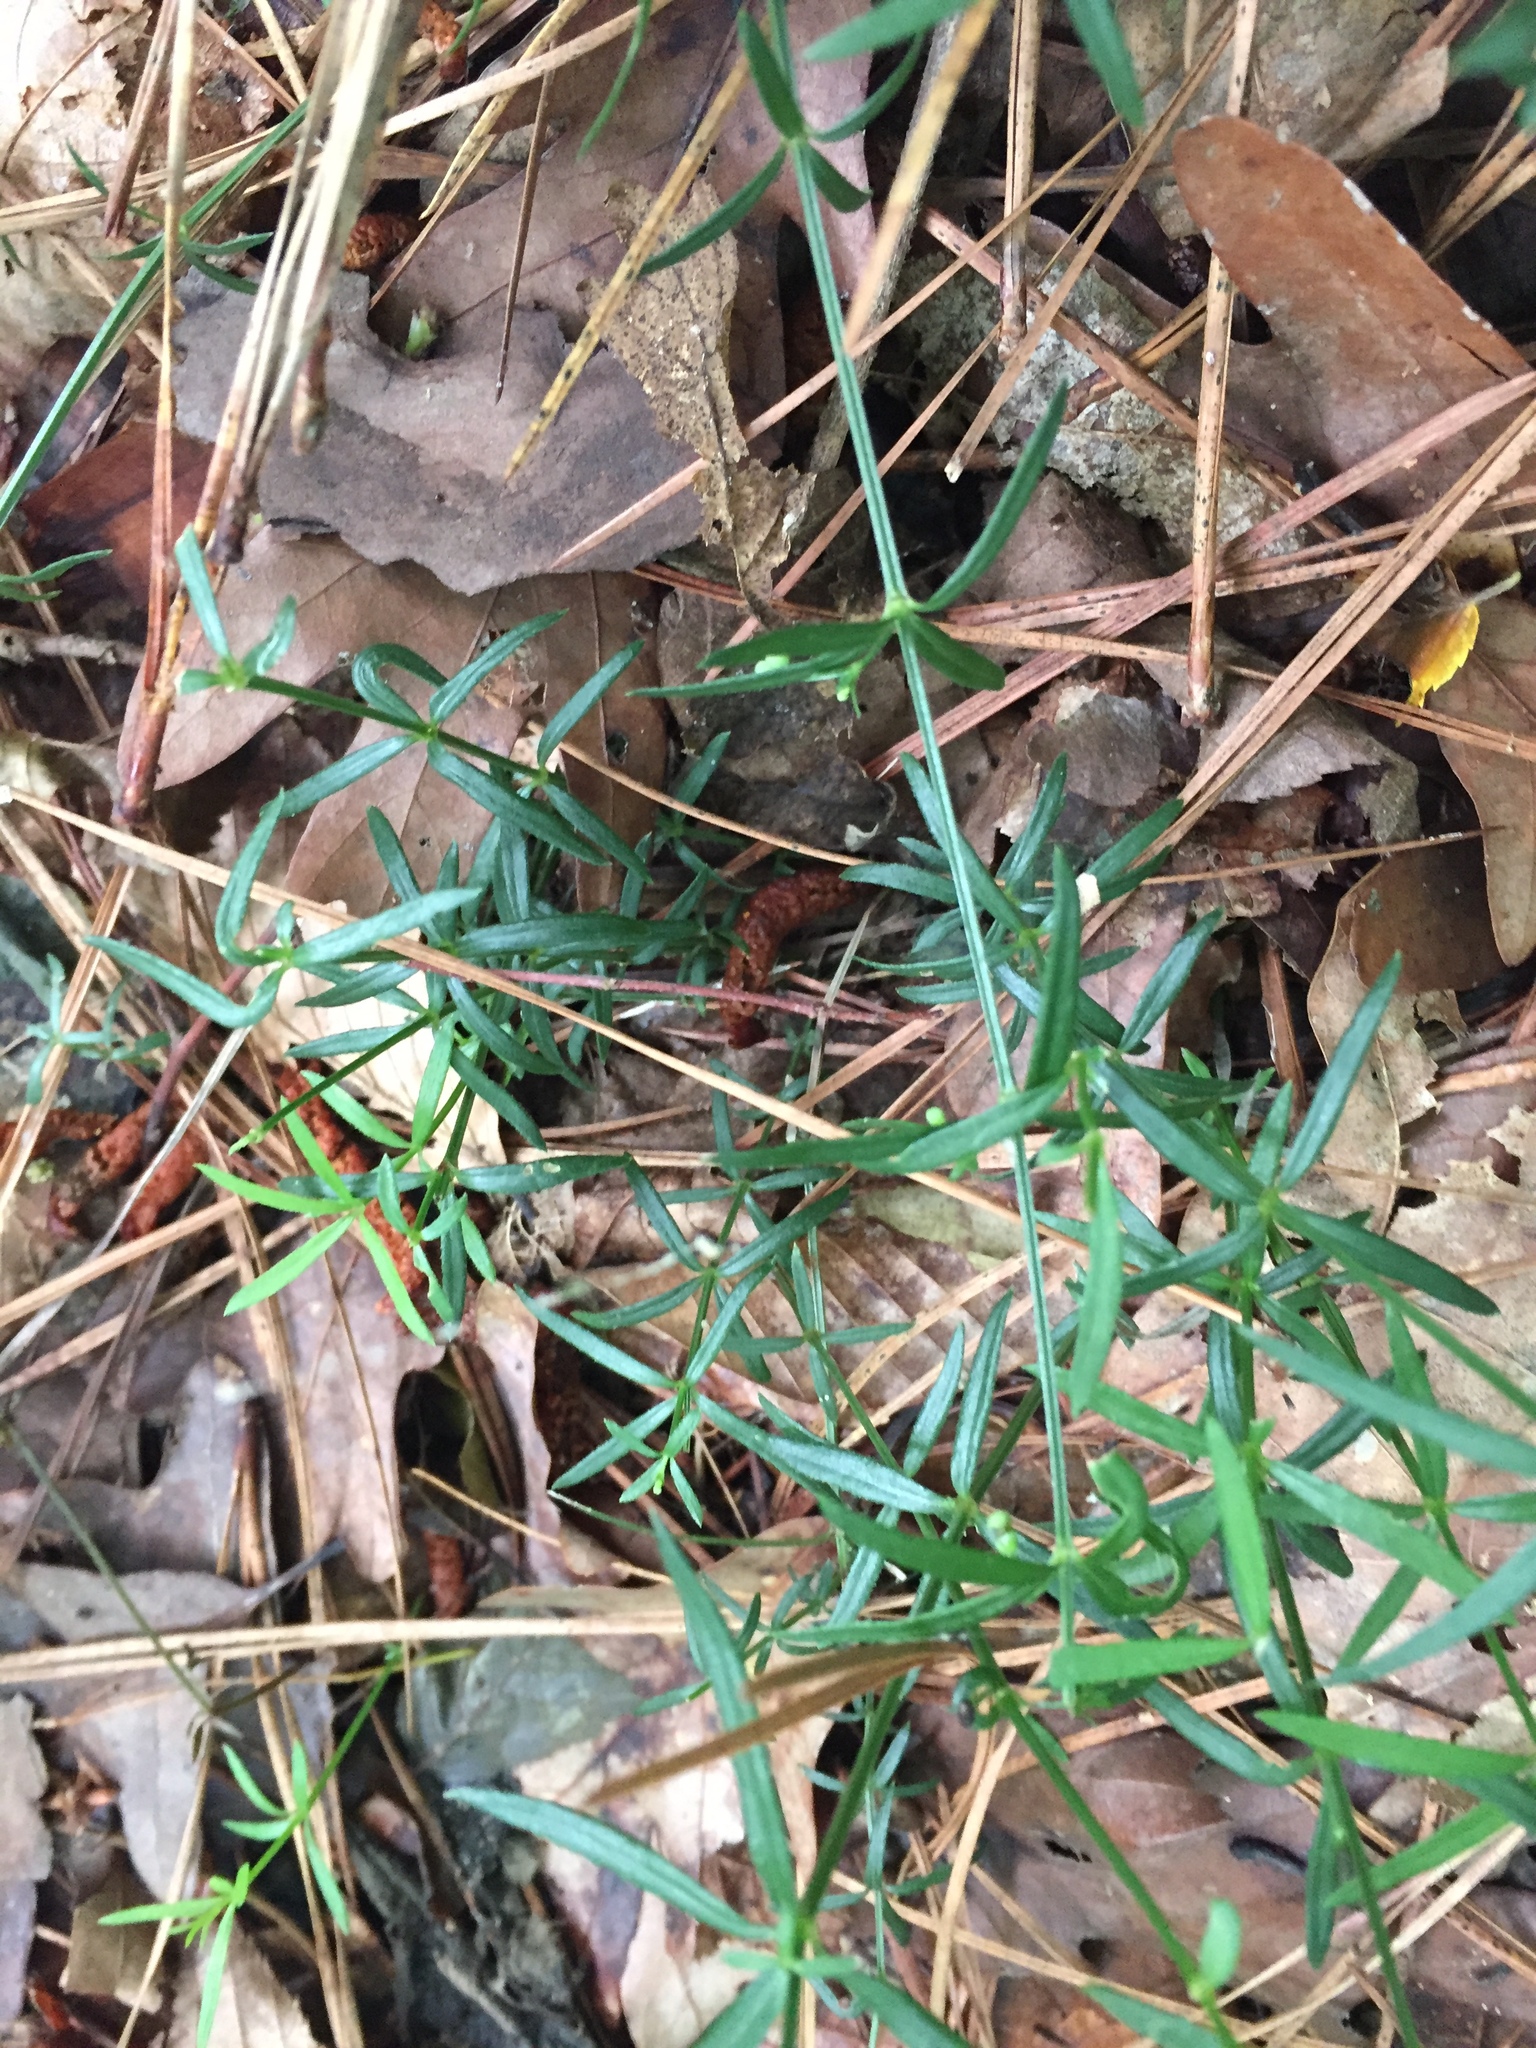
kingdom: Plantae
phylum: Tracheophyta
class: Magnoliopsida
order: Gentianales
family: Rubiaceae
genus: Galium
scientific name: Galium uniflorum
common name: One-flower bedstraw
